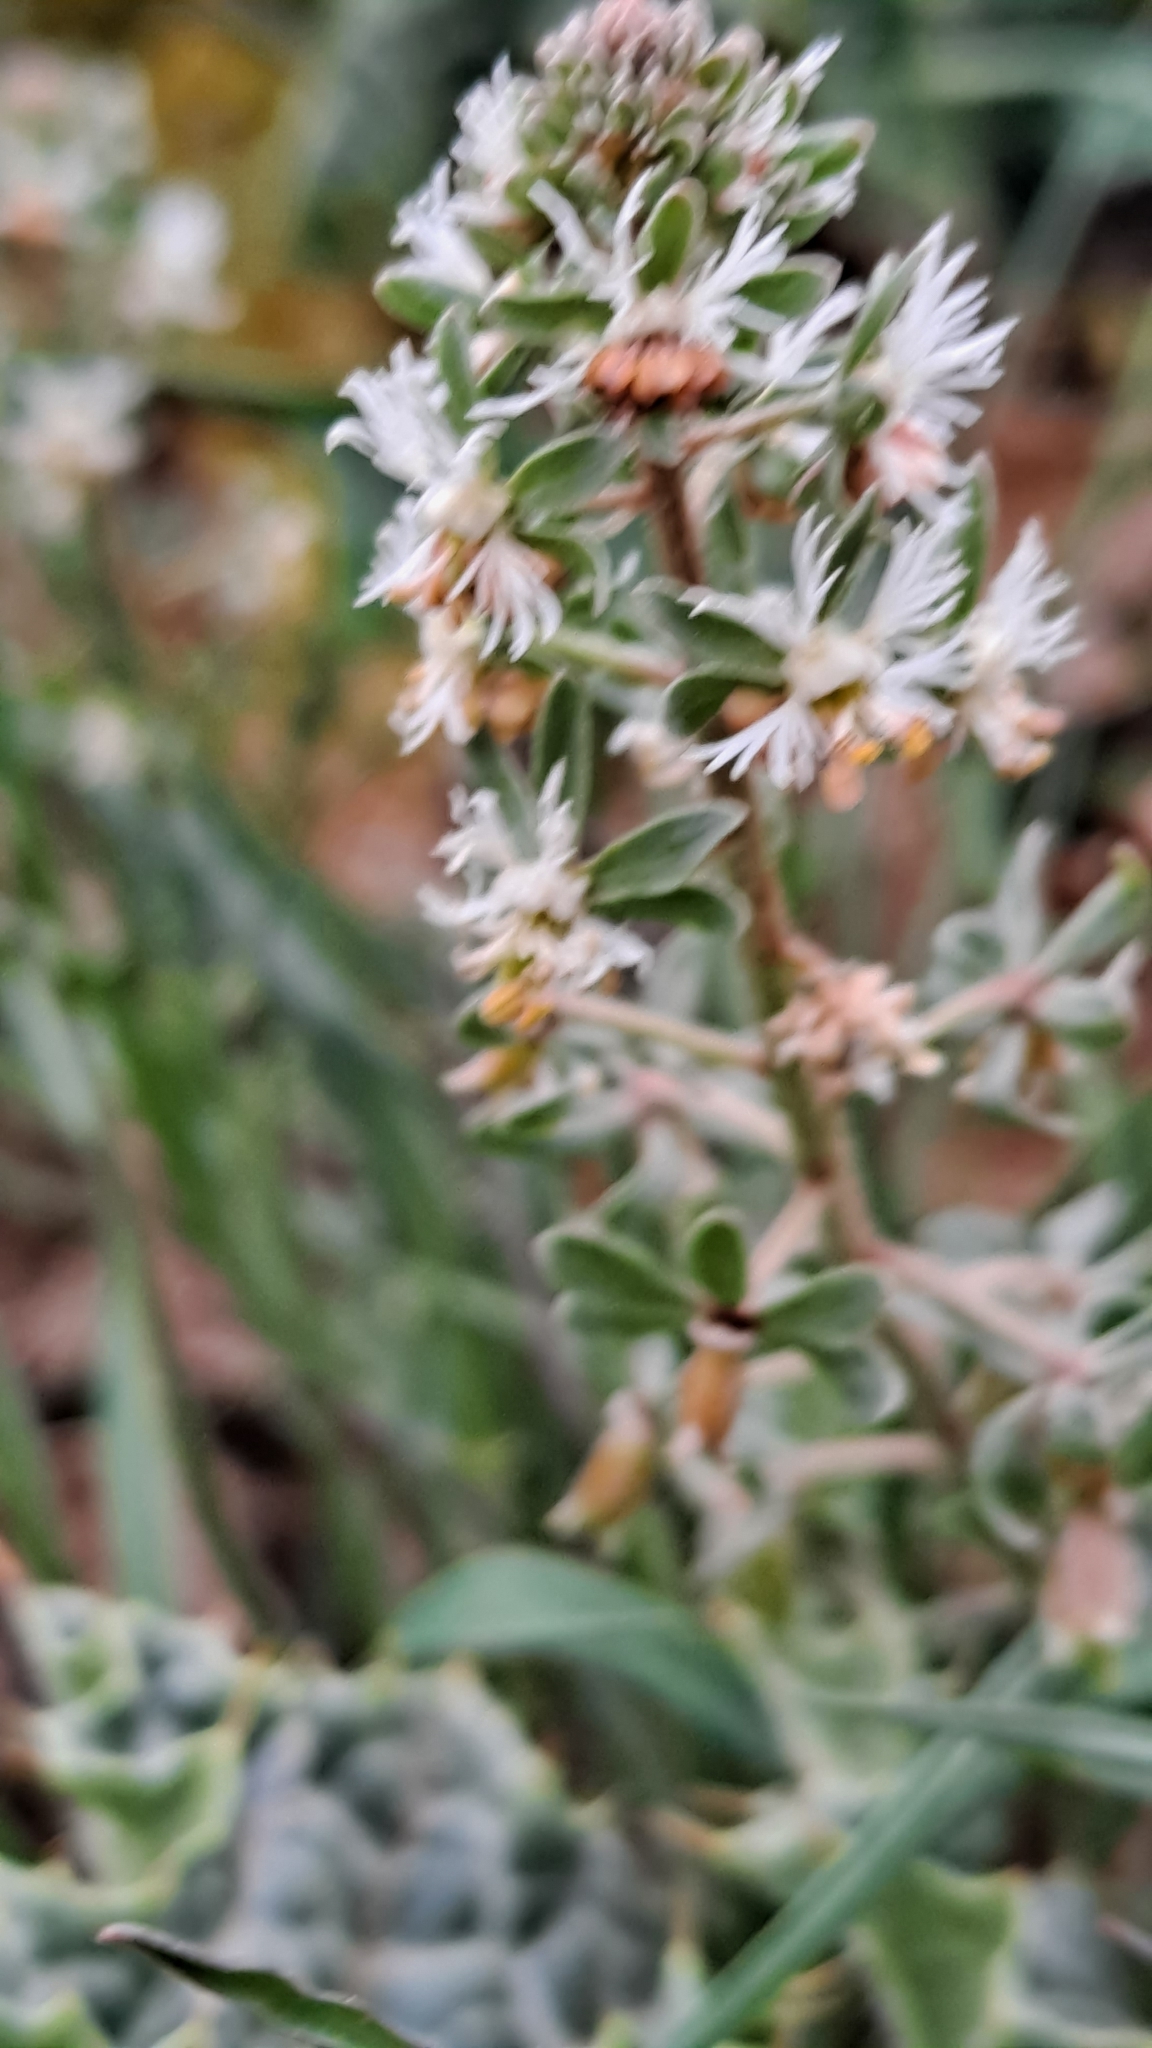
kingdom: Plantae
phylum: Tracheophyta
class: Magnoliopsida
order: Brassicales
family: Resedaceae
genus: Reseda
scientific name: Reseda phyteuma
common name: Corn mignonette
